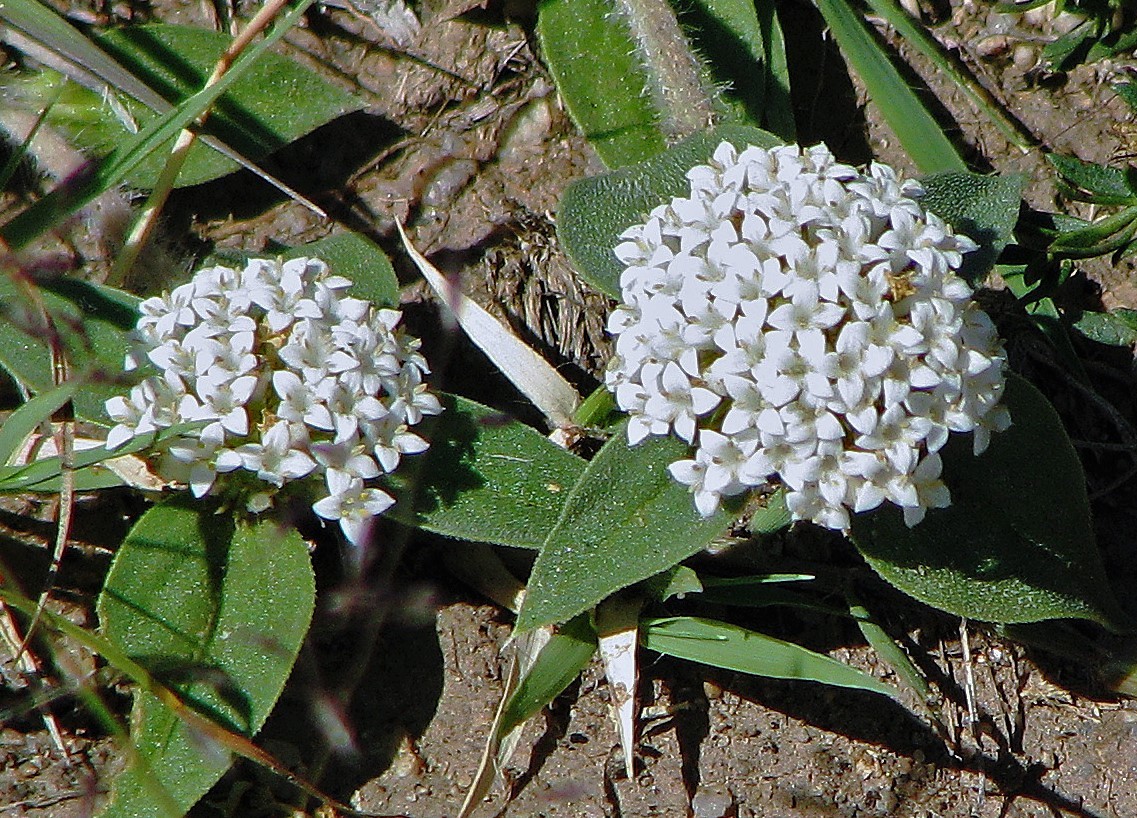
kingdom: Plantae
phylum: Tracheophyta
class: Magnoliopsida
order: Gentianales
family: Rubiaceae
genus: Mitracarpus
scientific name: Mitracarpus megapotamicus
